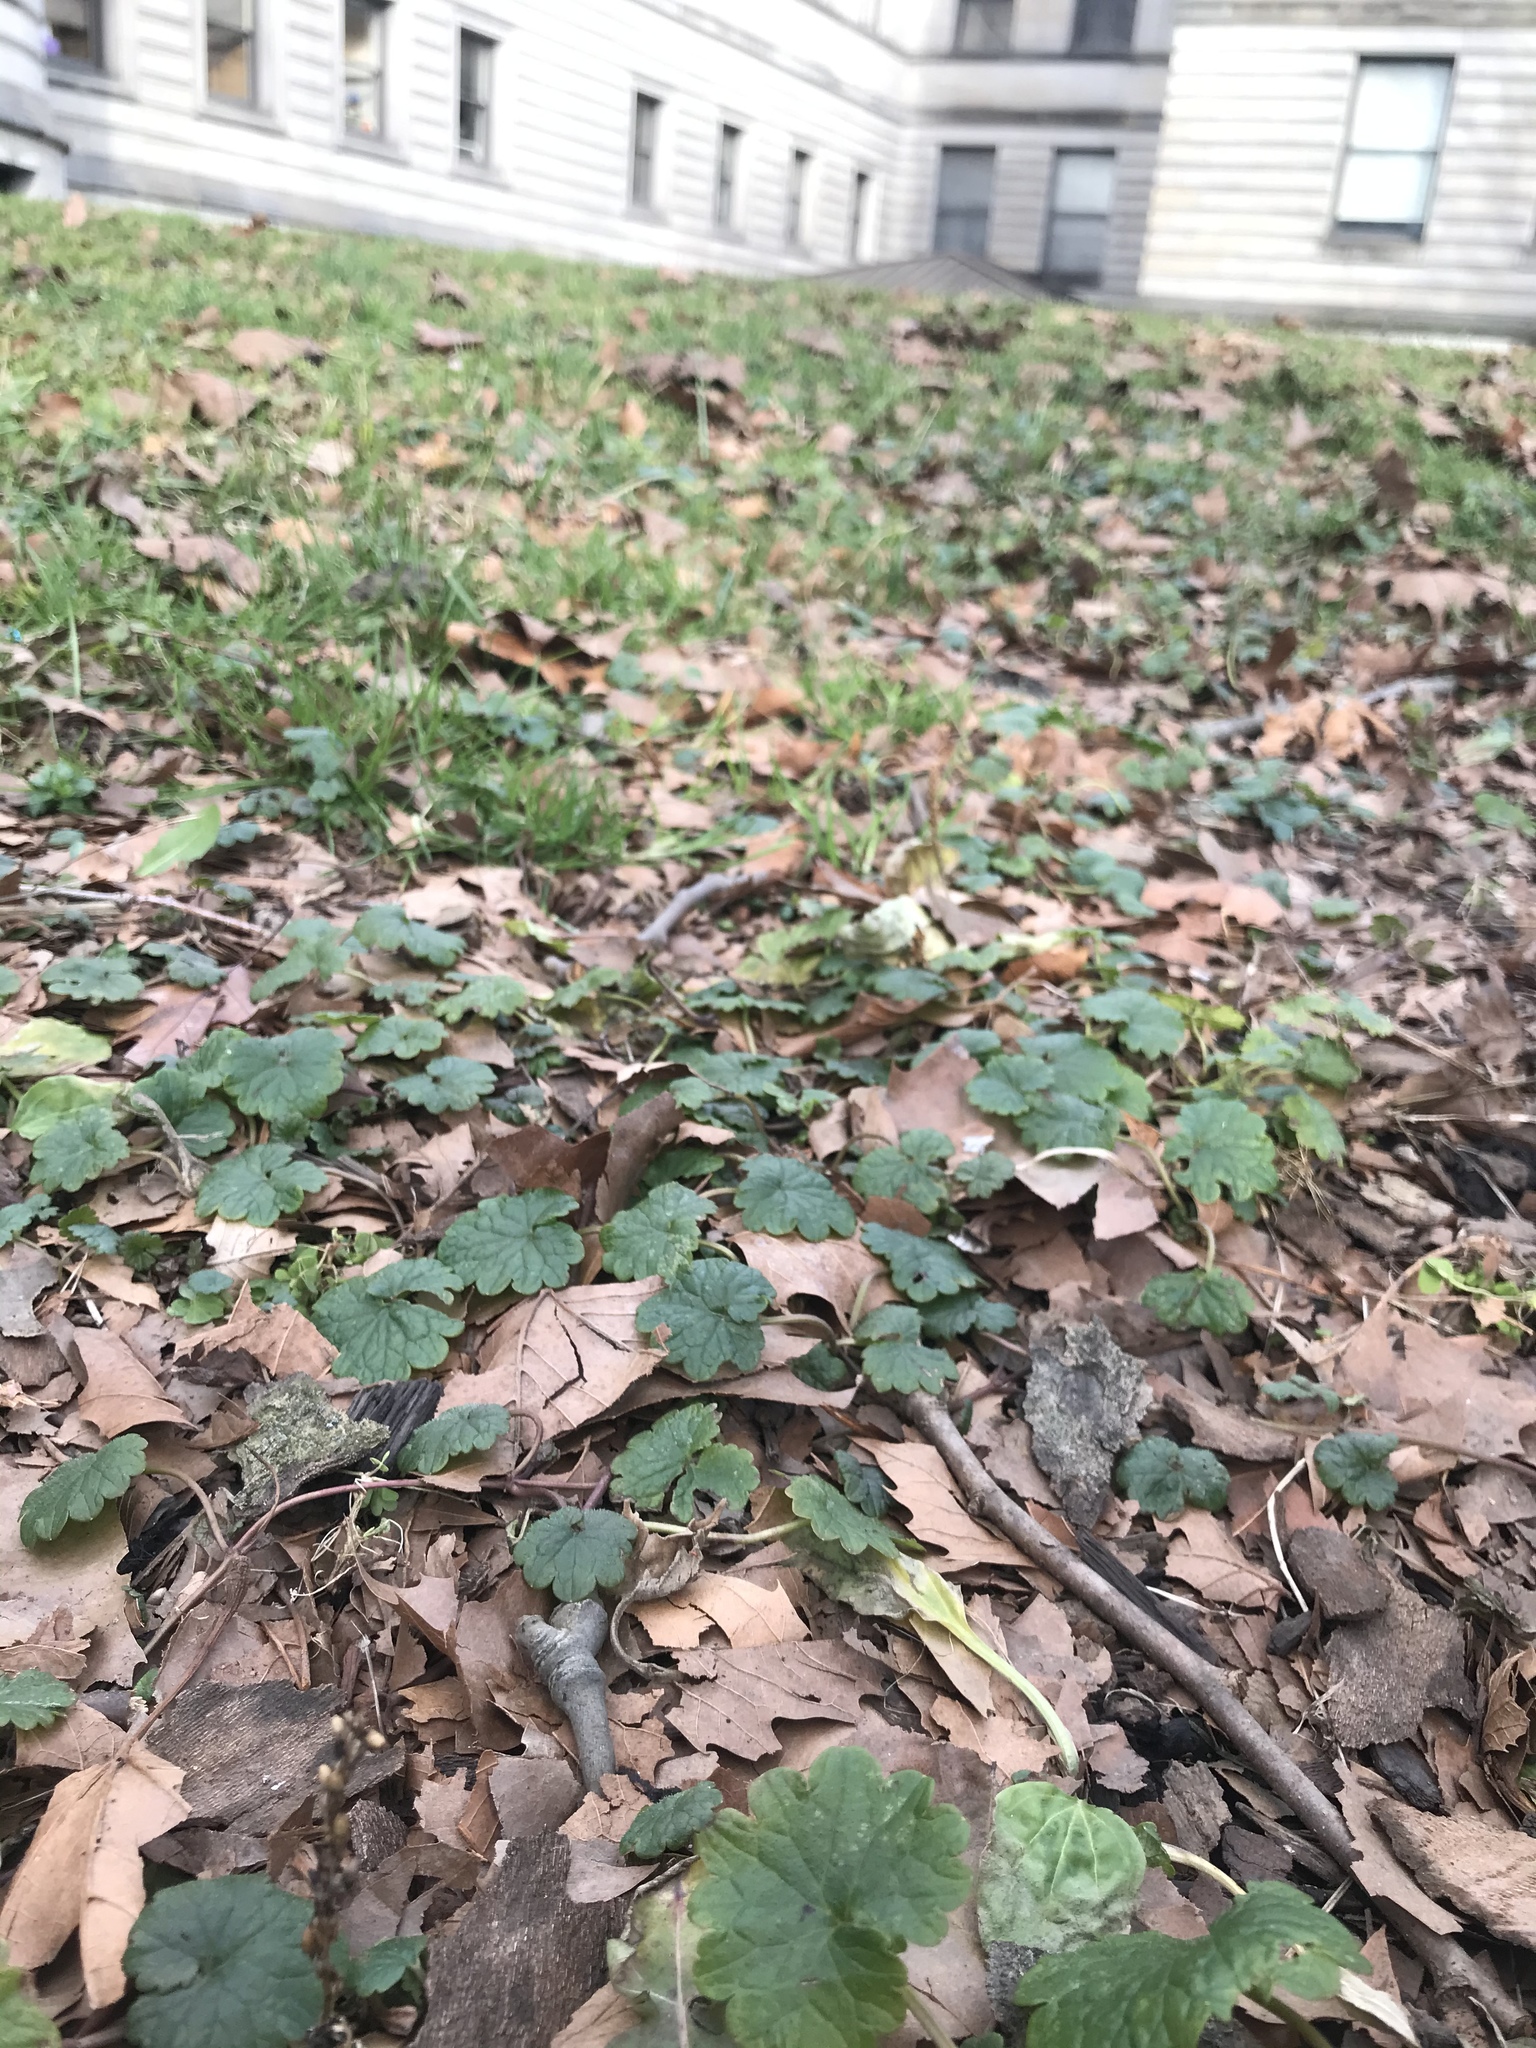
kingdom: Plantae
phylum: Tracheophyta
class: Magnoliopsida
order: Lamiales
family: Lamiaceae
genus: Glechoma
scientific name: Glechoma hederacea
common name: Ground ivy
